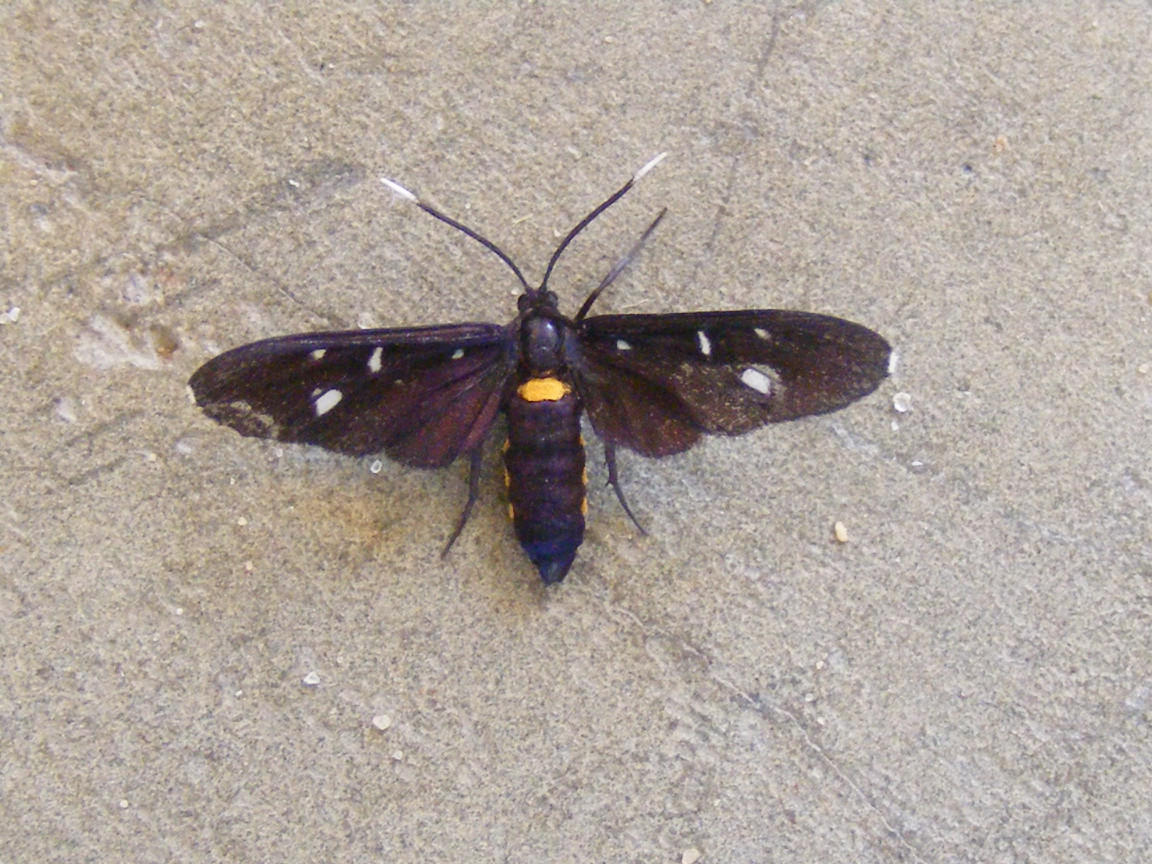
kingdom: Animalia
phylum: Arthropoda
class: Insecta
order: Lepidoptera
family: Erebidae
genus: Amata
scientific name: Amata simplex
